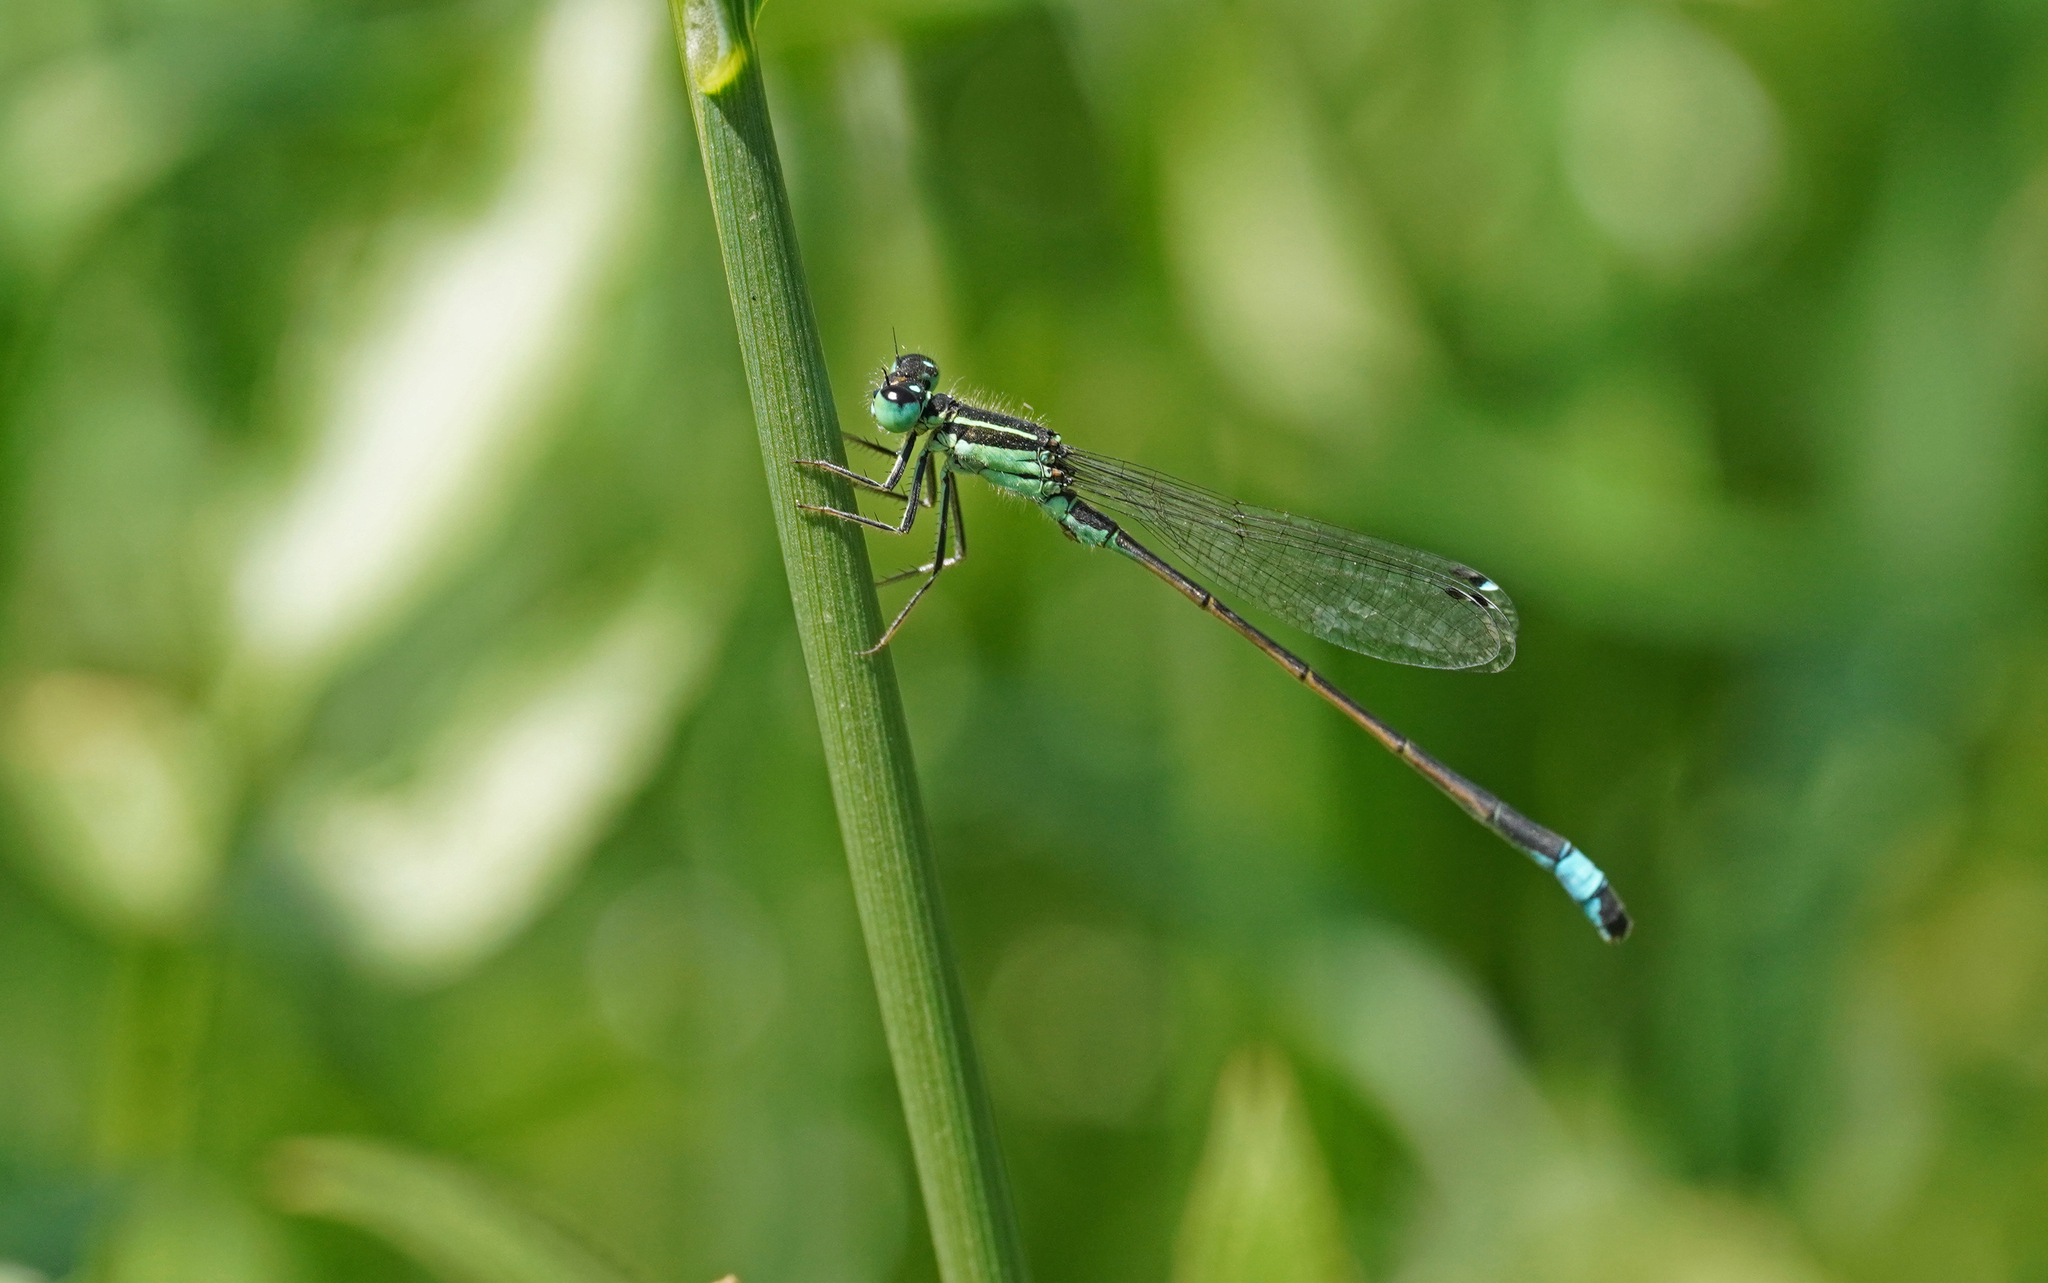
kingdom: Animalia
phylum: Arthropoda
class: Insecta
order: Odonata
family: Coenagrionidae
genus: Ischnura
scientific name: Ischnura genei
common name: Island bluetail
